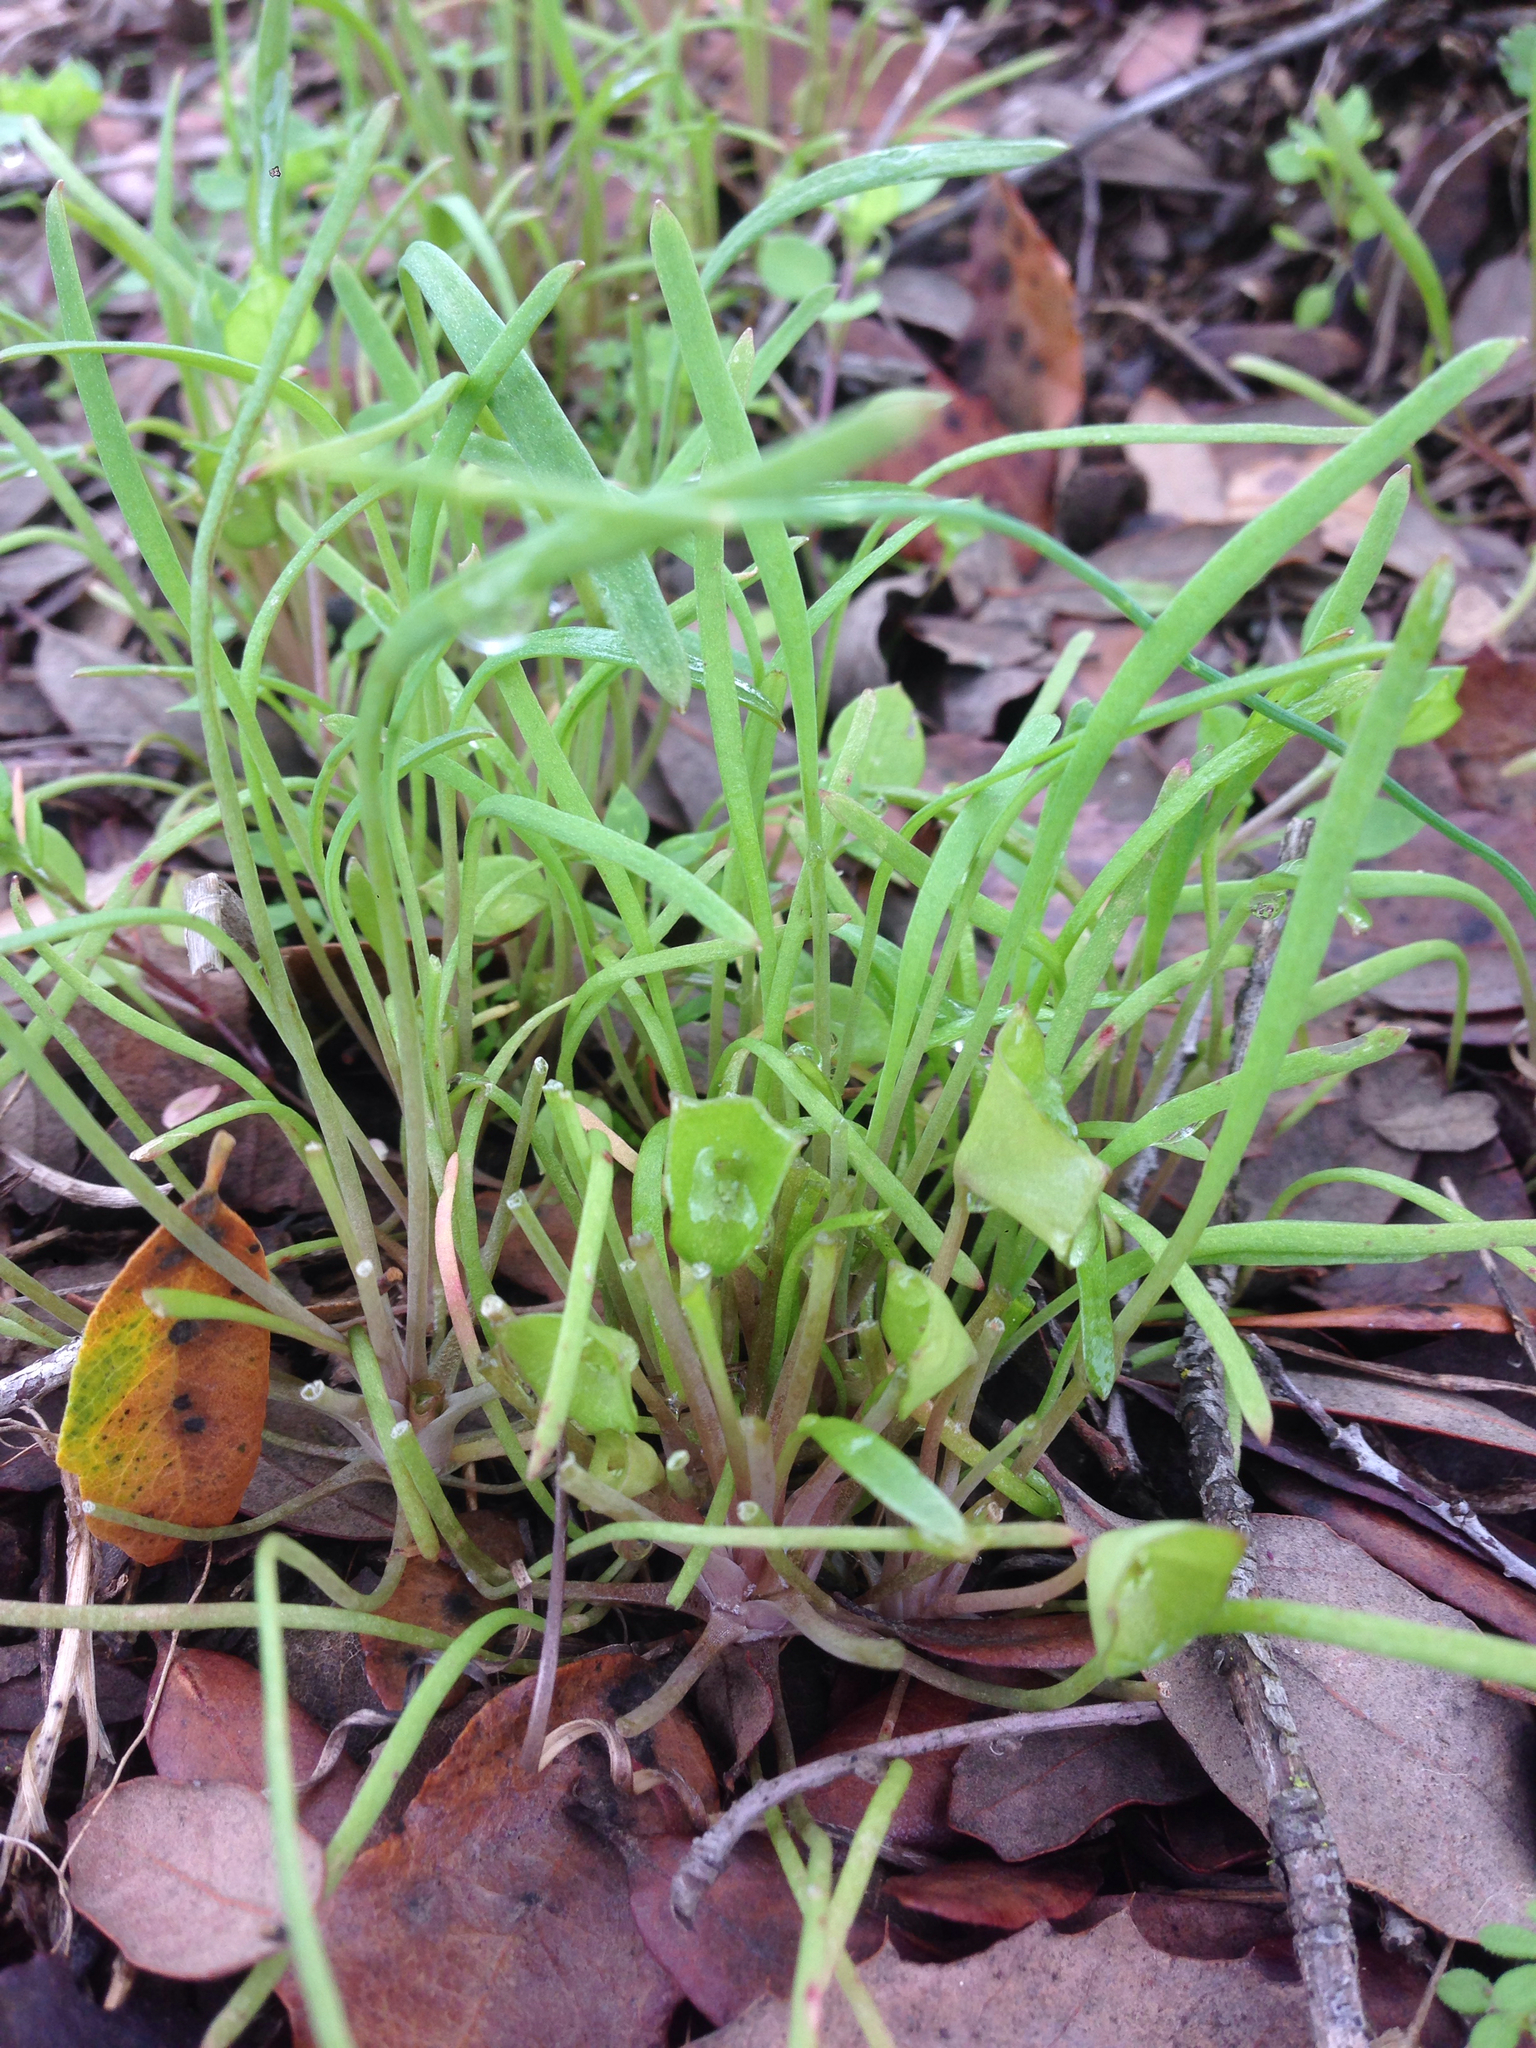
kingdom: Plantae
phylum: Tracheophyta
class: Magnoliopsida
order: Caryophyllales
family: Montiaceae
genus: Claytonia
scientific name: Claytonia parviflora
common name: Indian-lettuce
